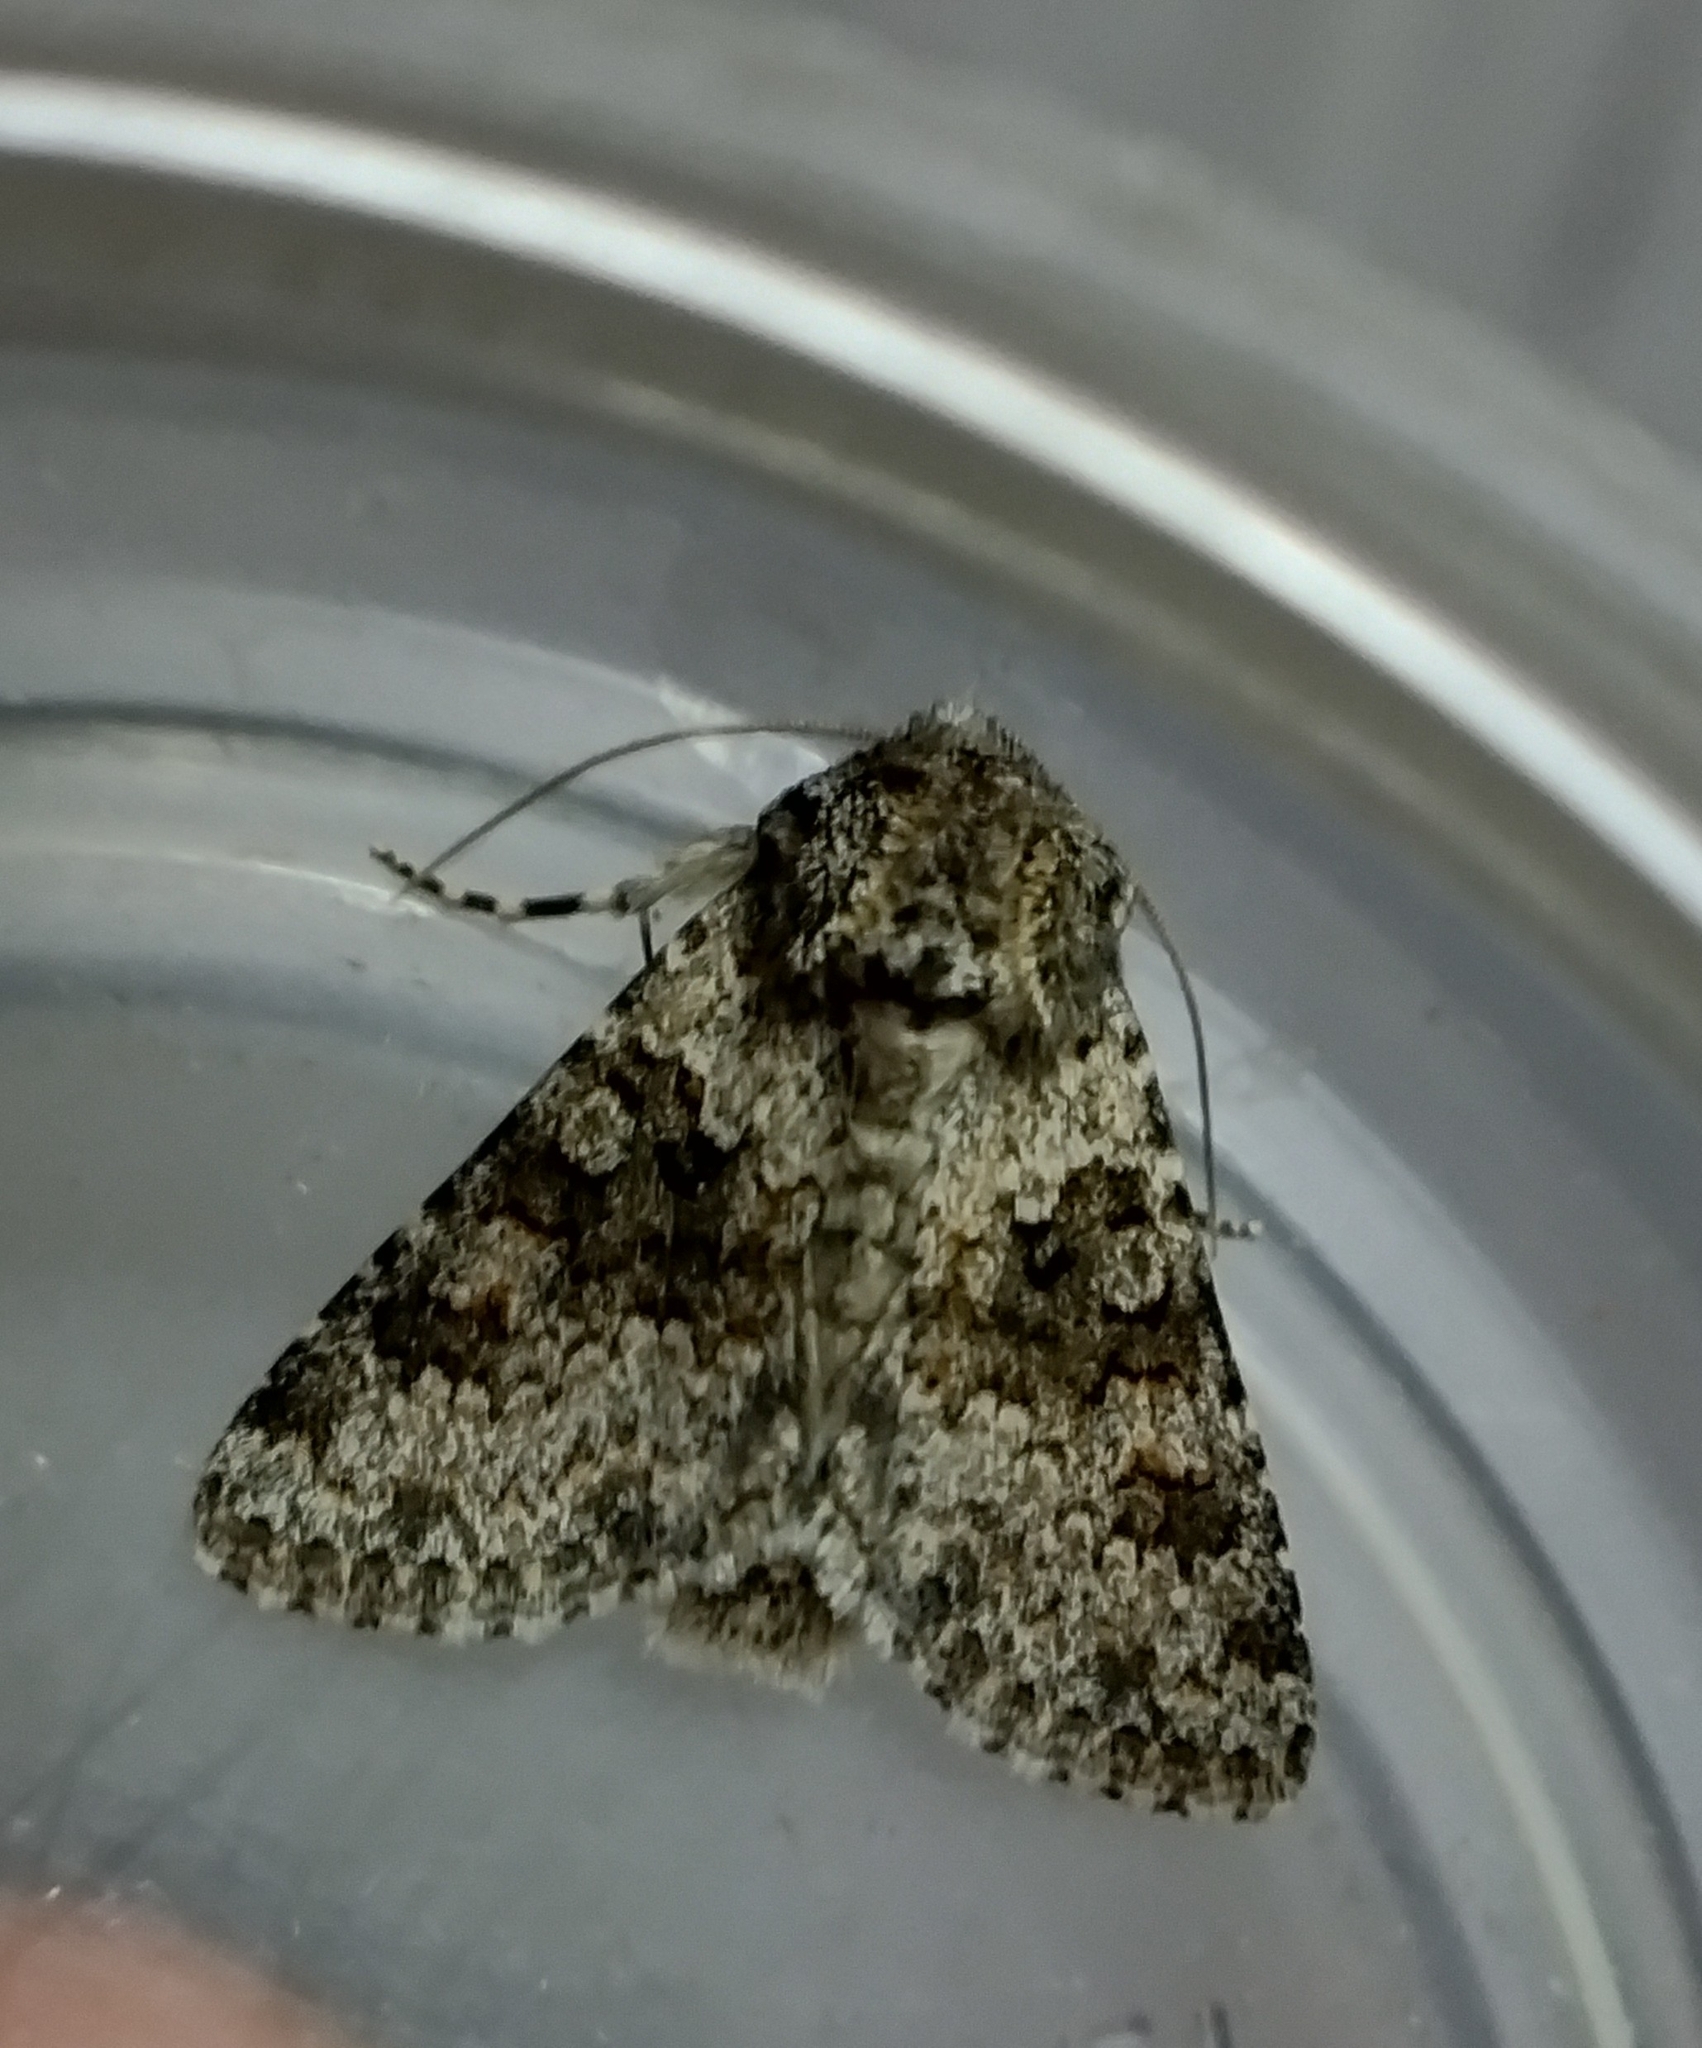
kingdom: Animalia
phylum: Arthropoda
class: Insecta
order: Lepidoptera
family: Noctuidae
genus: Hecatera
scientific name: Hecatera dysodea
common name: Small ranunculus
